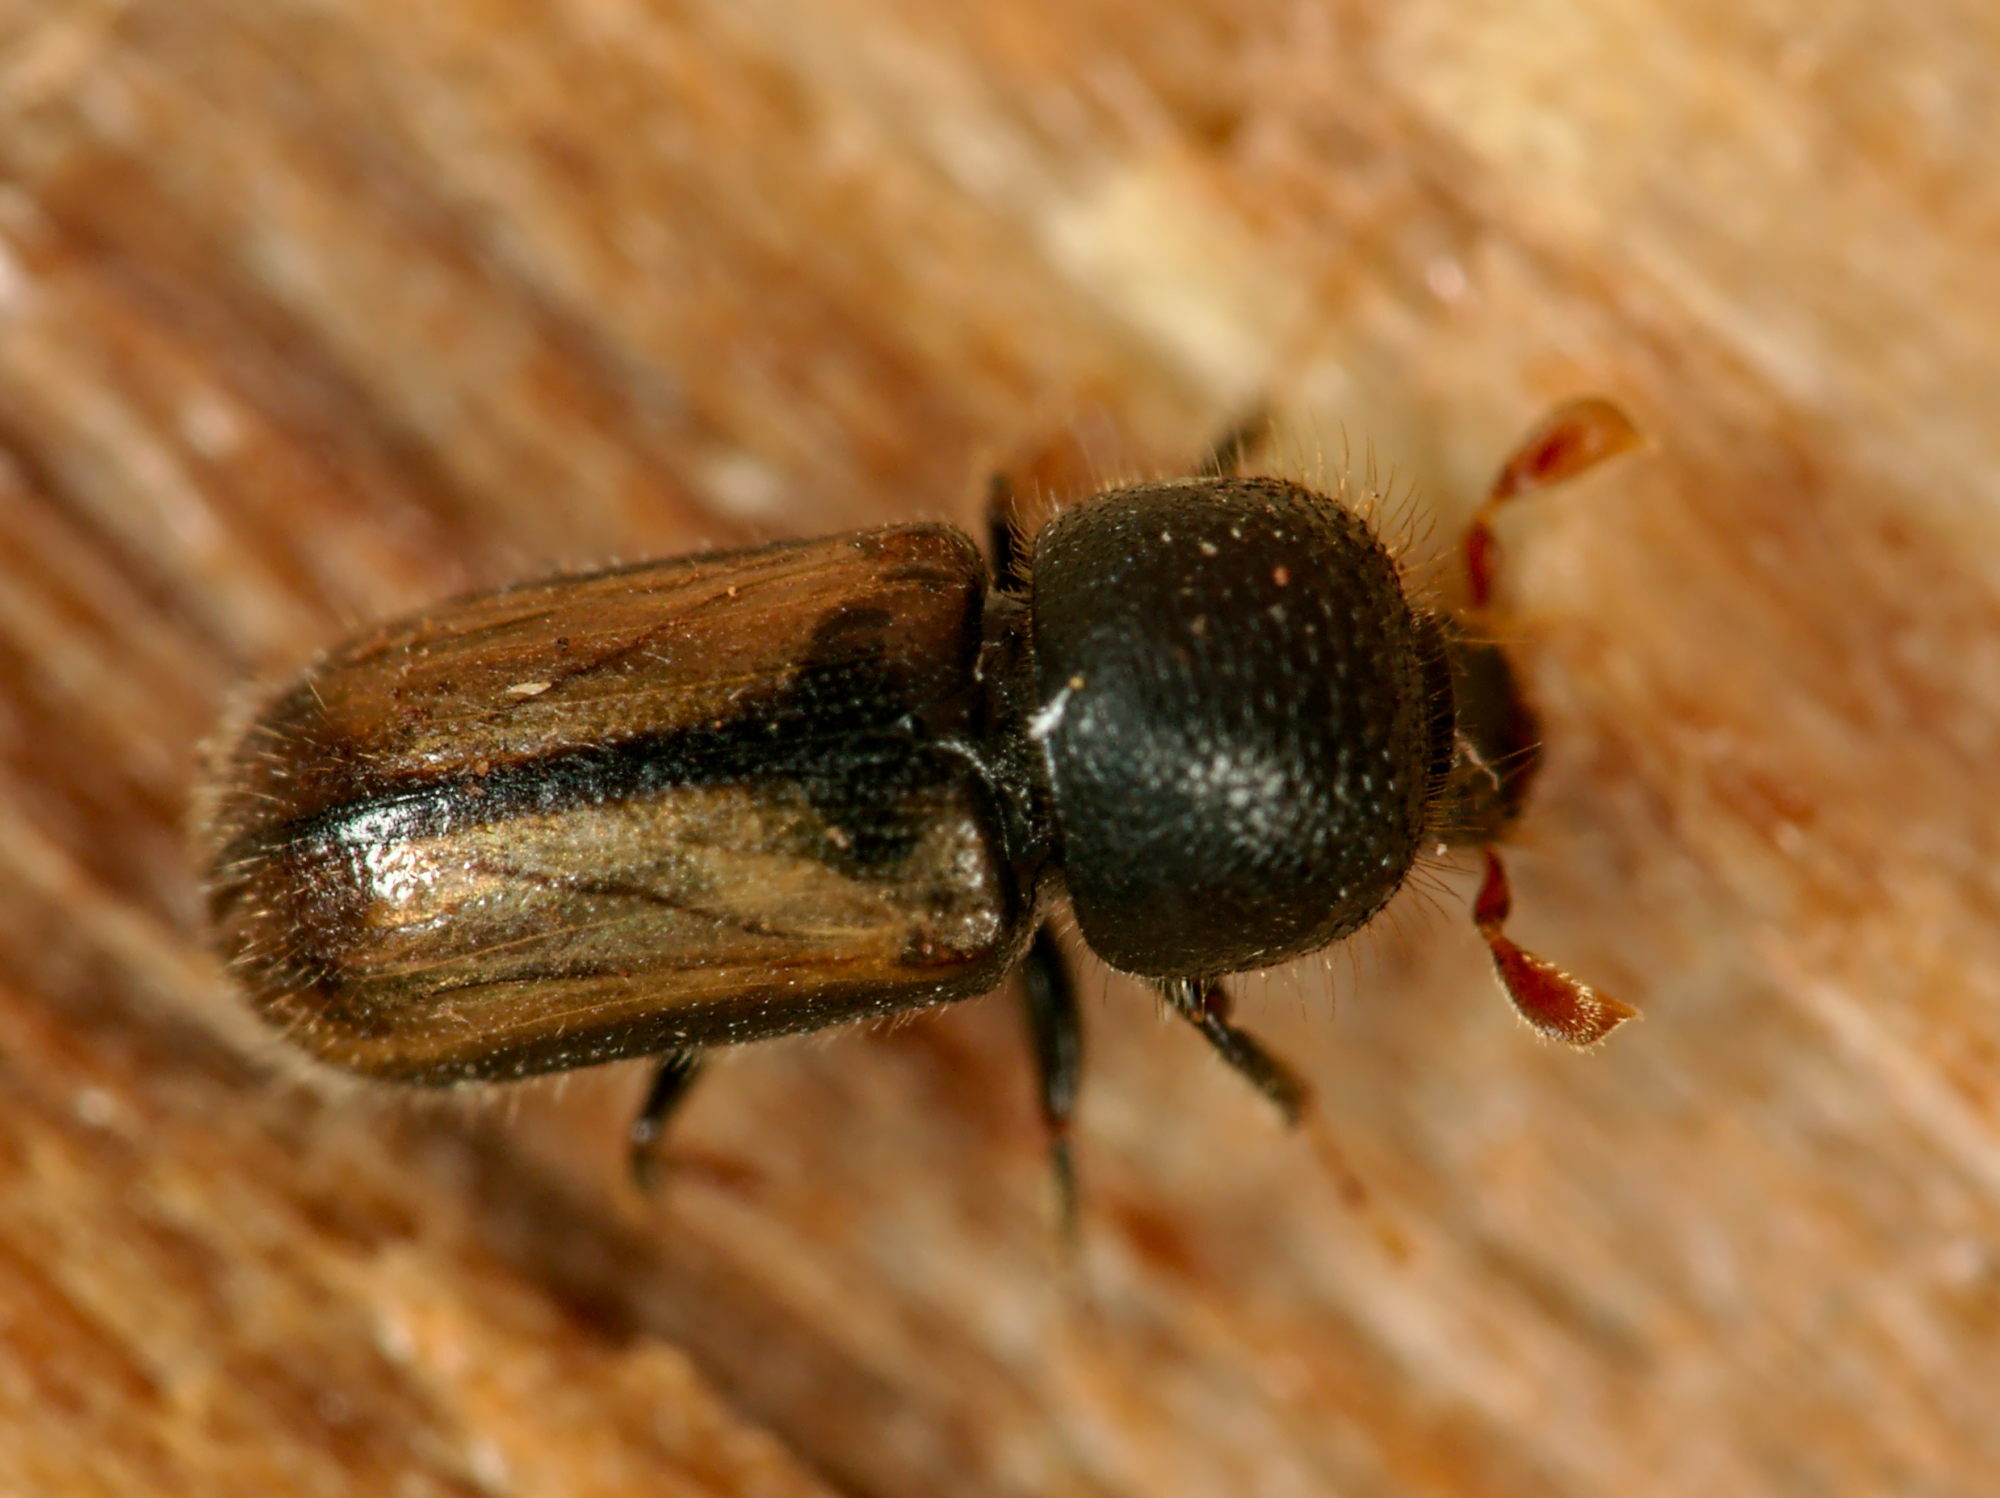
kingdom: Animalia
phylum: Arthropoda
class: Insecta
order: Coleoptera
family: Curculionidae
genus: Trypodendron
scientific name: Trypodendron domesticum
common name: European hardwood ambrosia beetle
